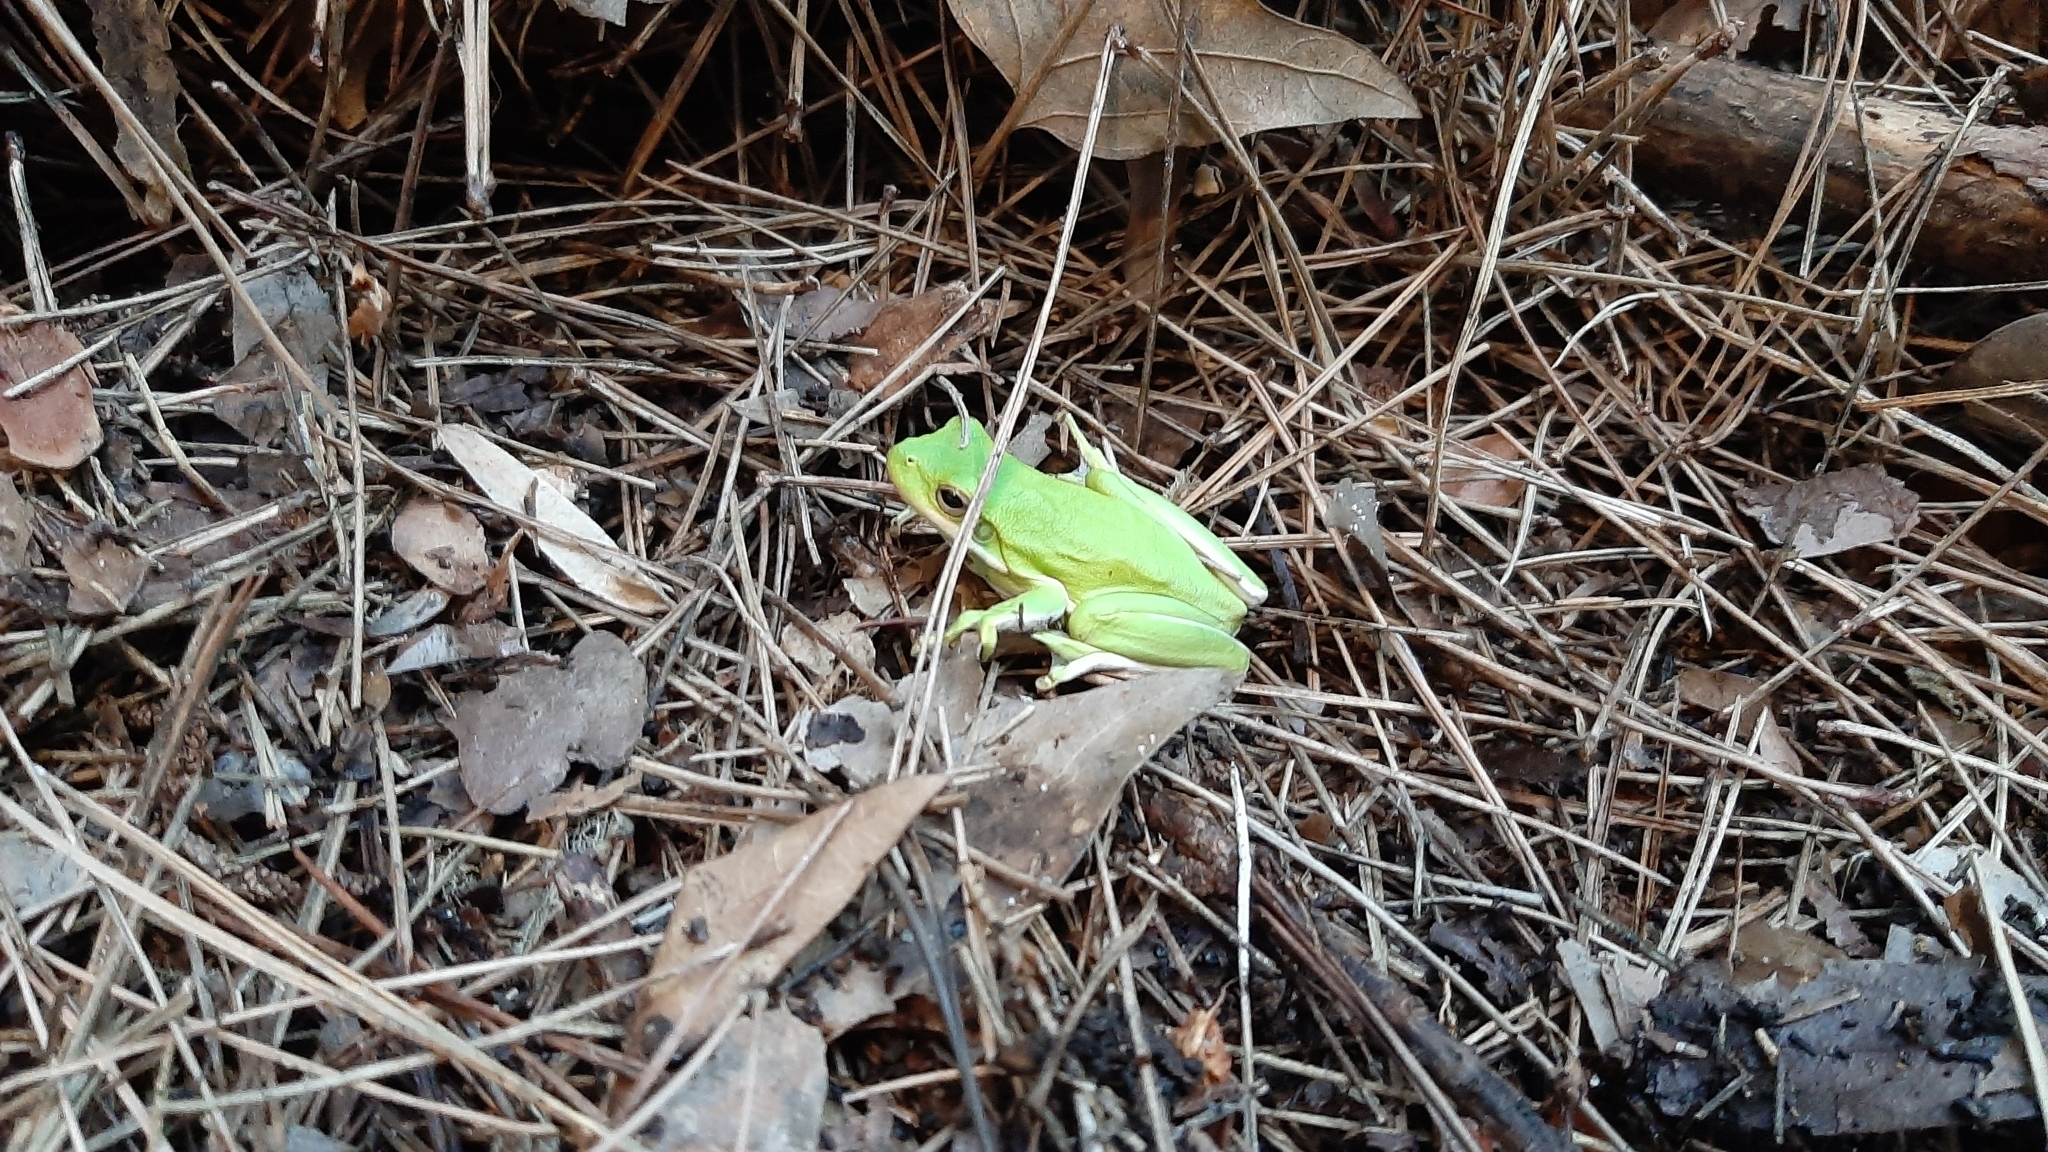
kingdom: Animalia
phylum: Chordata
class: Amphibia
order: Anura
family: Hylidae
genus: Dryophytes
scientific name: Dryophytes cinereus
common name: Green treefrog
